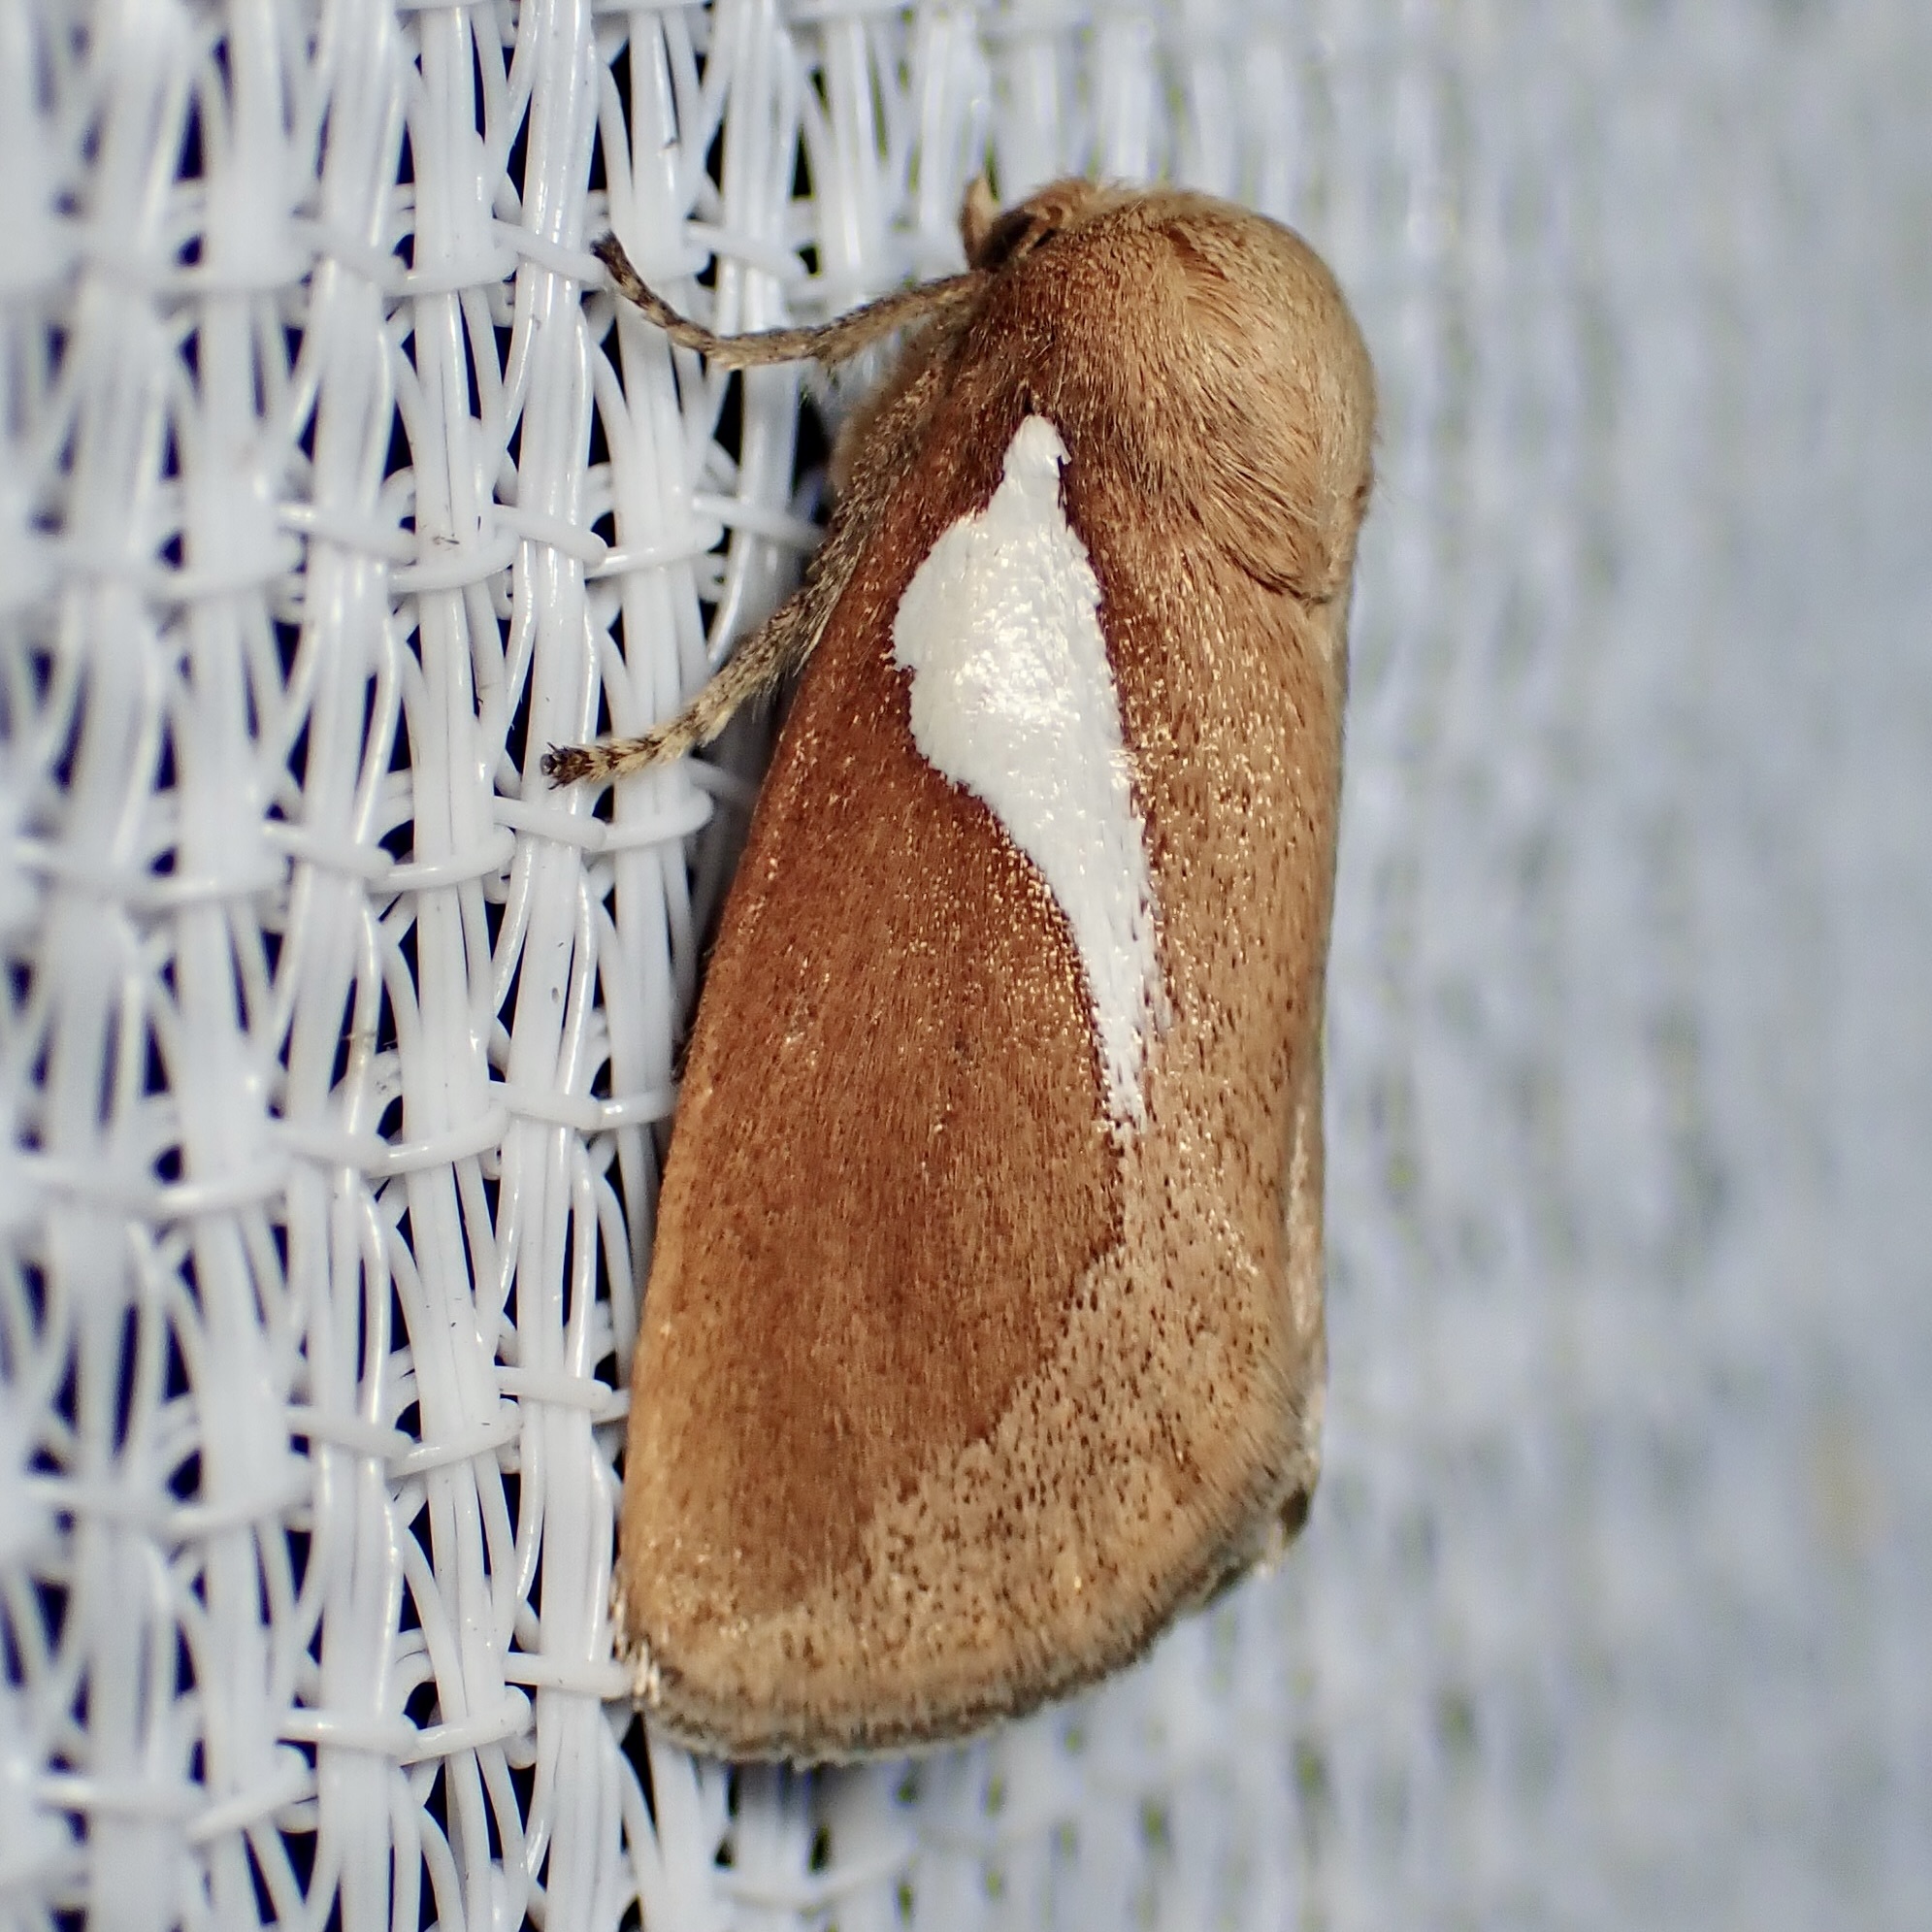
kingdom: Animalia
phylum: Arthropoda
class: Insecta
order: Lepidoptera
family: Limacodidae
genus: Prolimacodes
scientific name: Prolimacodes trigona
